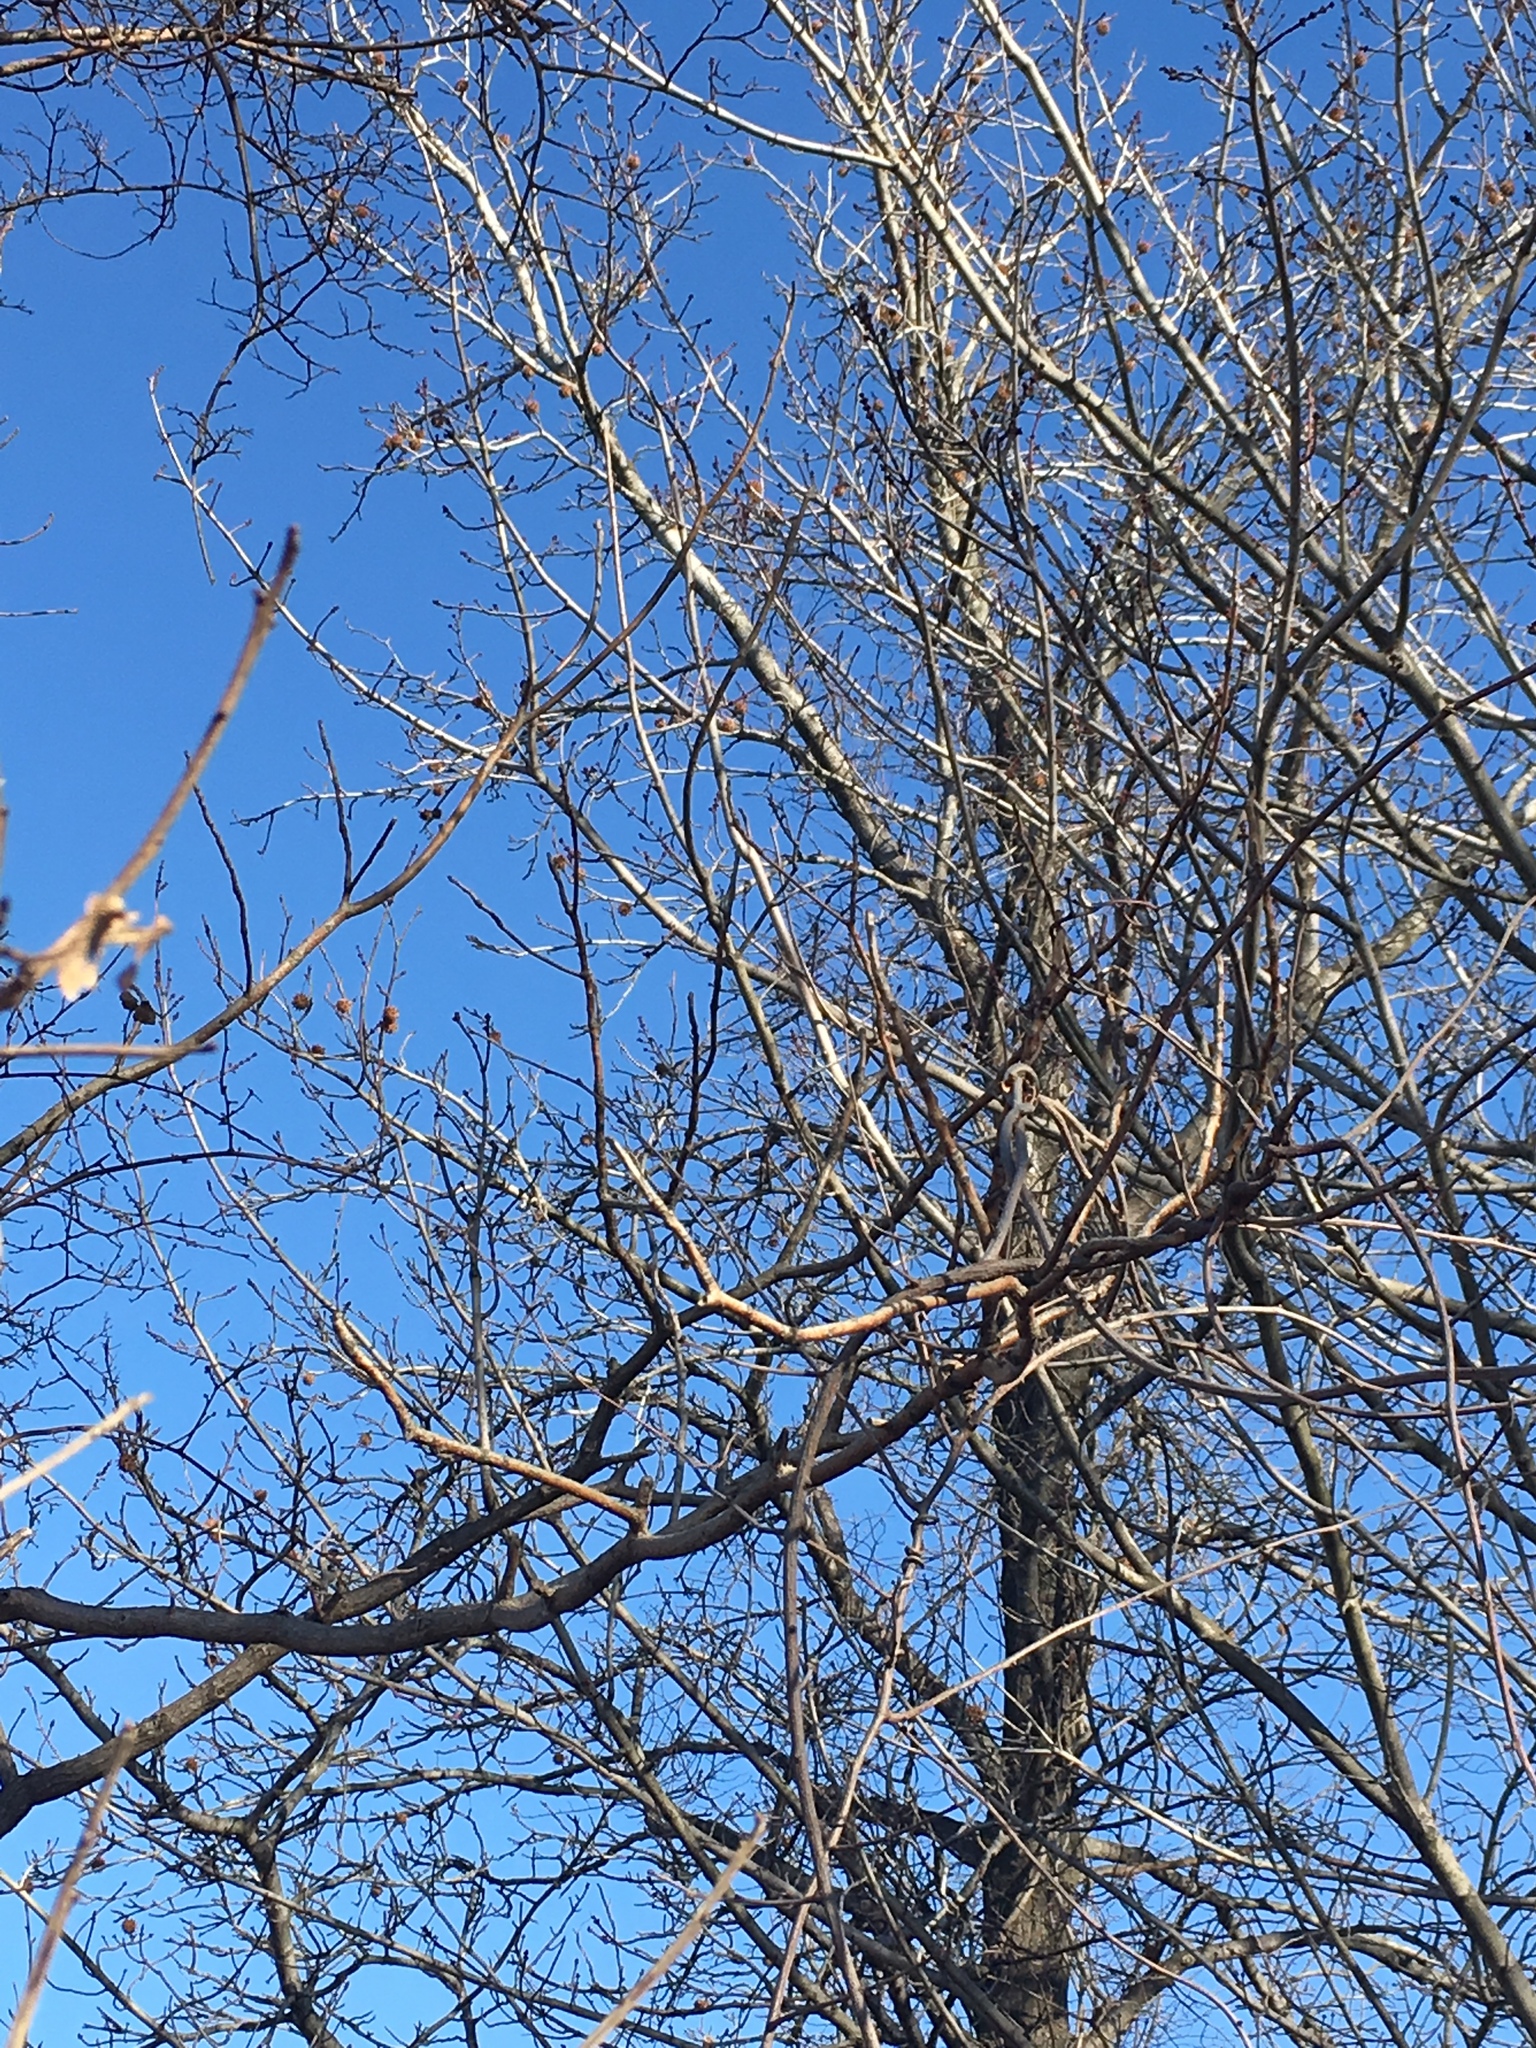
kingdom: Plantae
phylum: Tracheophyta
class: Magnoliopsida
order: Saxifragales
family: Altingiaceae
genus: Liquidambar
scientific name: Liquidambar styraciflua
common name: Sweet gum
